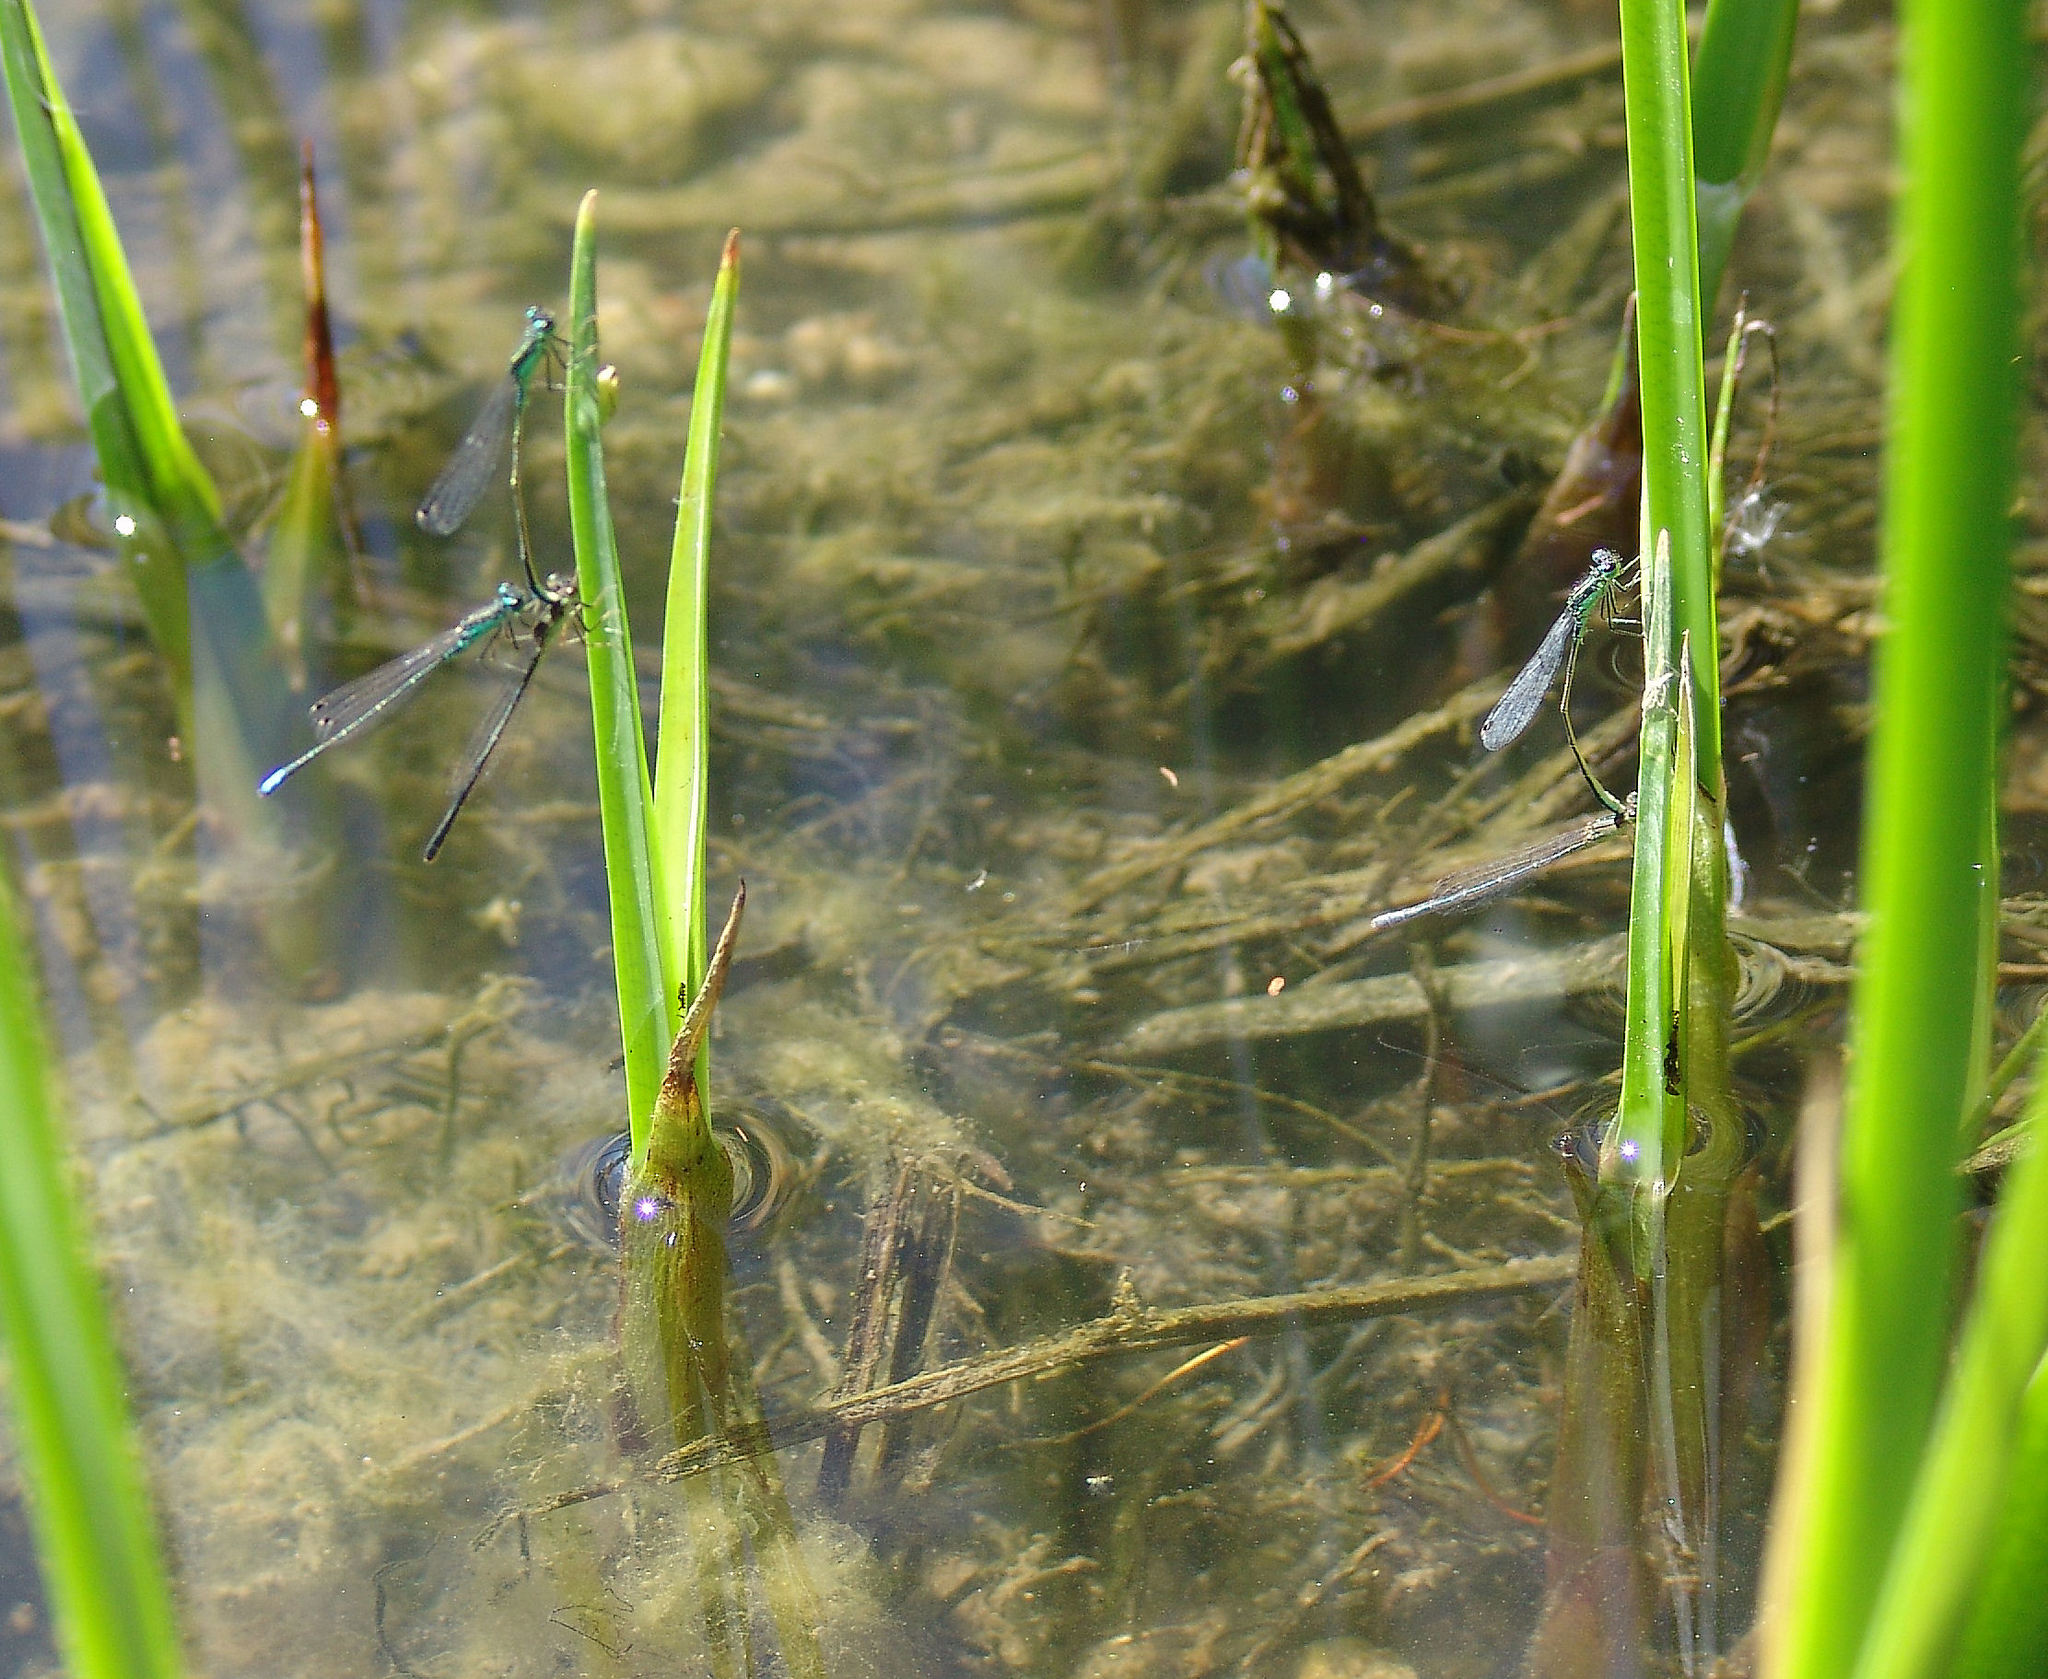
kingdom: Animalia
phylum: Arthropoda
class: Insecta
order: Odonata
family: Coenagrionidae
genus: Ischnura
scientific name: Ischnura denticollis
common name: Black-fronted forktail
